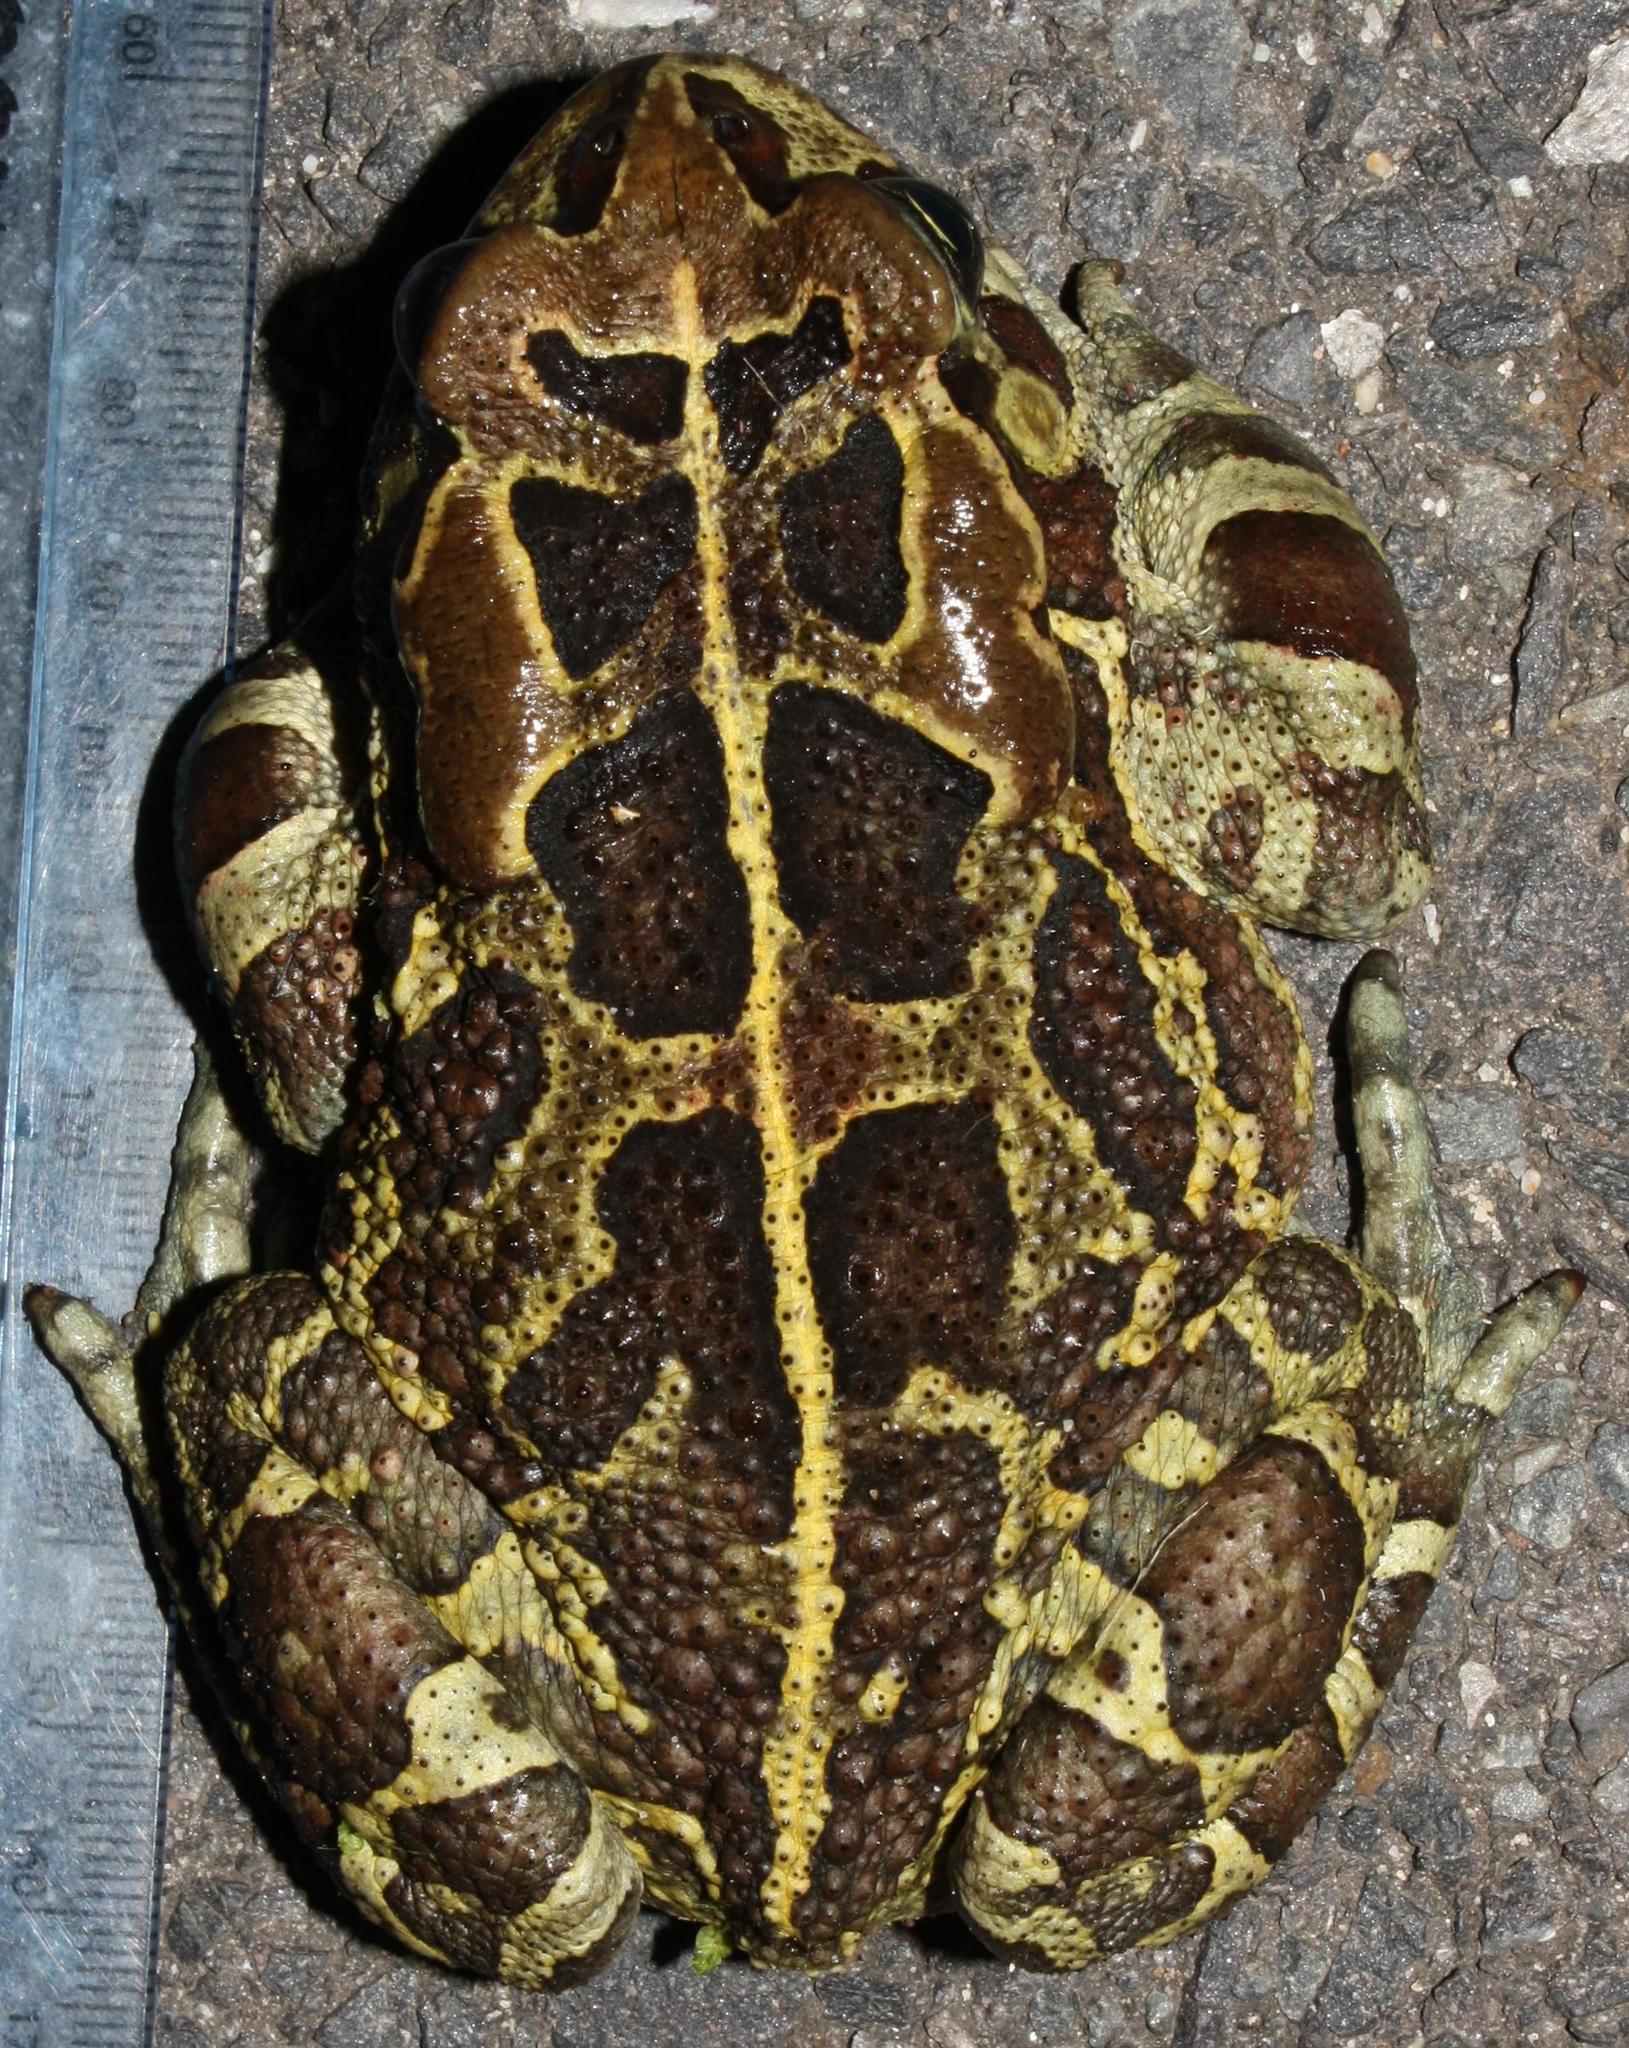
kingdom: Animalia
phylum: Chordata
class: Amphibia
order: Anura
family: Bufonidae
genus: Sclerophrys
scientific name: Sclerophrys pantherina
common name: Panther toad
